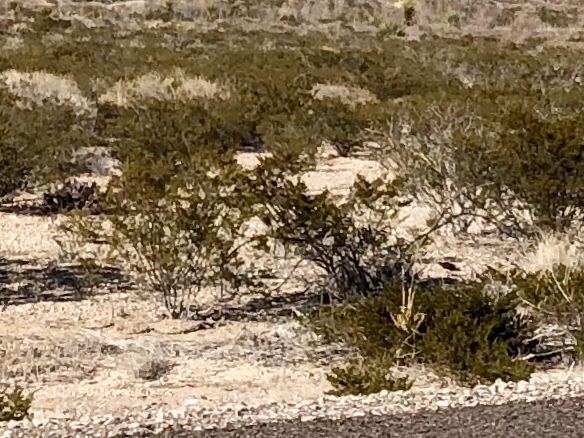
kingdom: Plantae
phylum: Tracheophyta
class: Magnoliopsida
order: Zygophyllales
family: Zygophyllaceae
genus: Larrea
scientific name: Larrea tridentata
